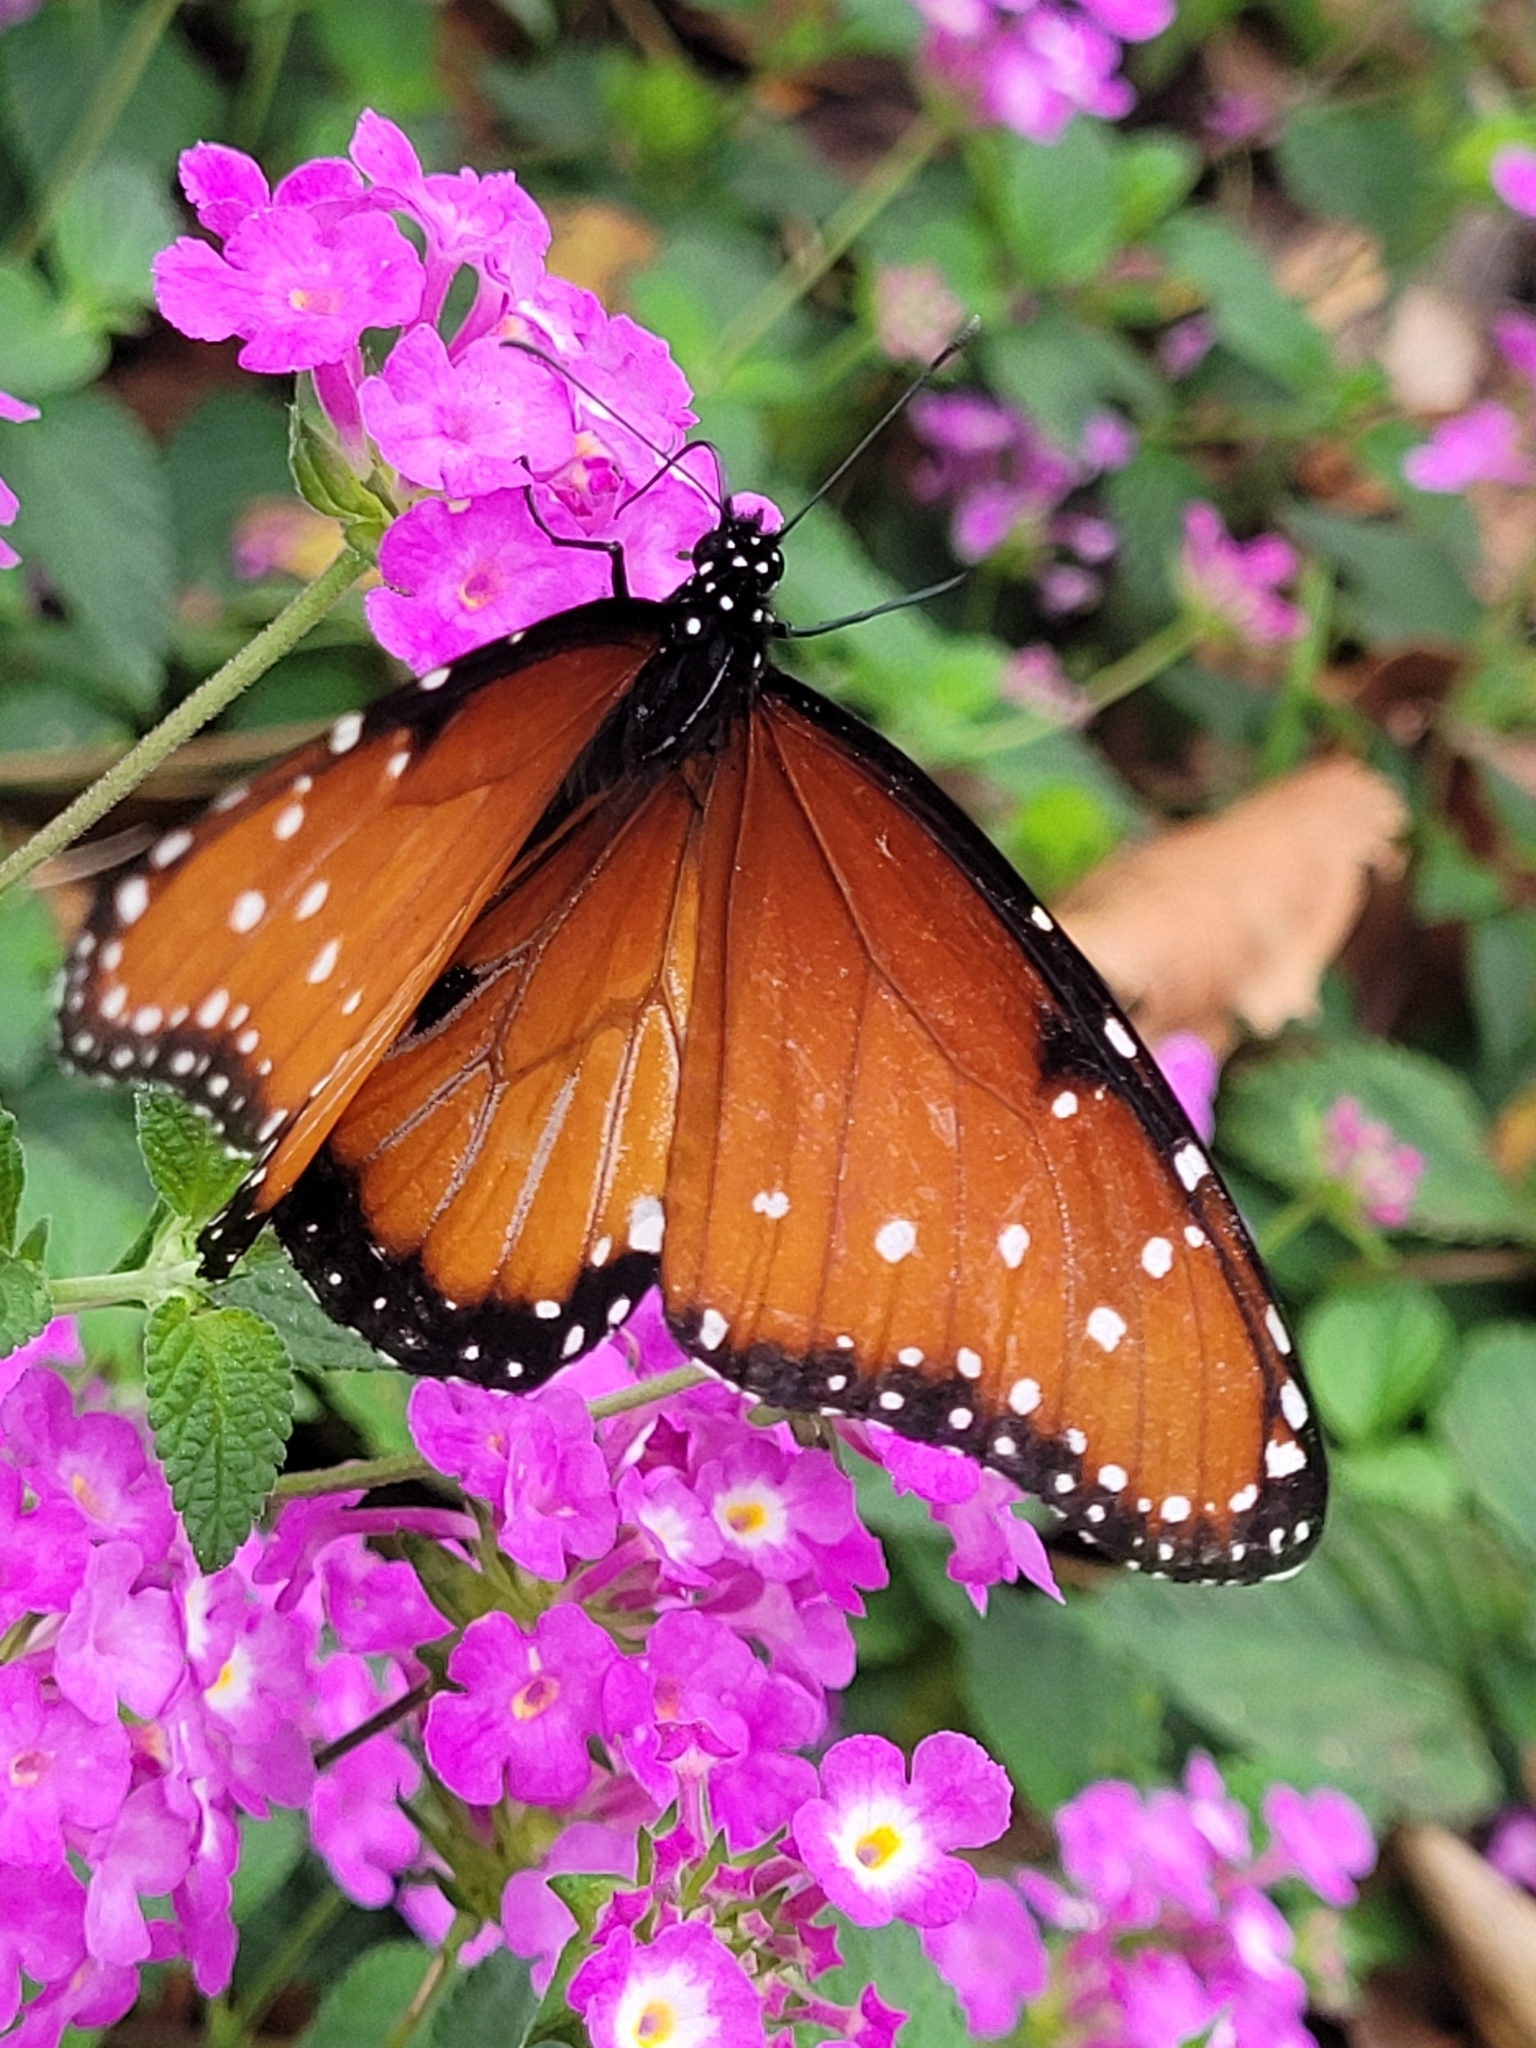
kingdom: Animalia
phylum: Arthropoda
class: Insecta
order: Lepidoptera
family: Nymphalidae
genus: Danaus
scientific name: Danaus gilippus
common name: Queen
